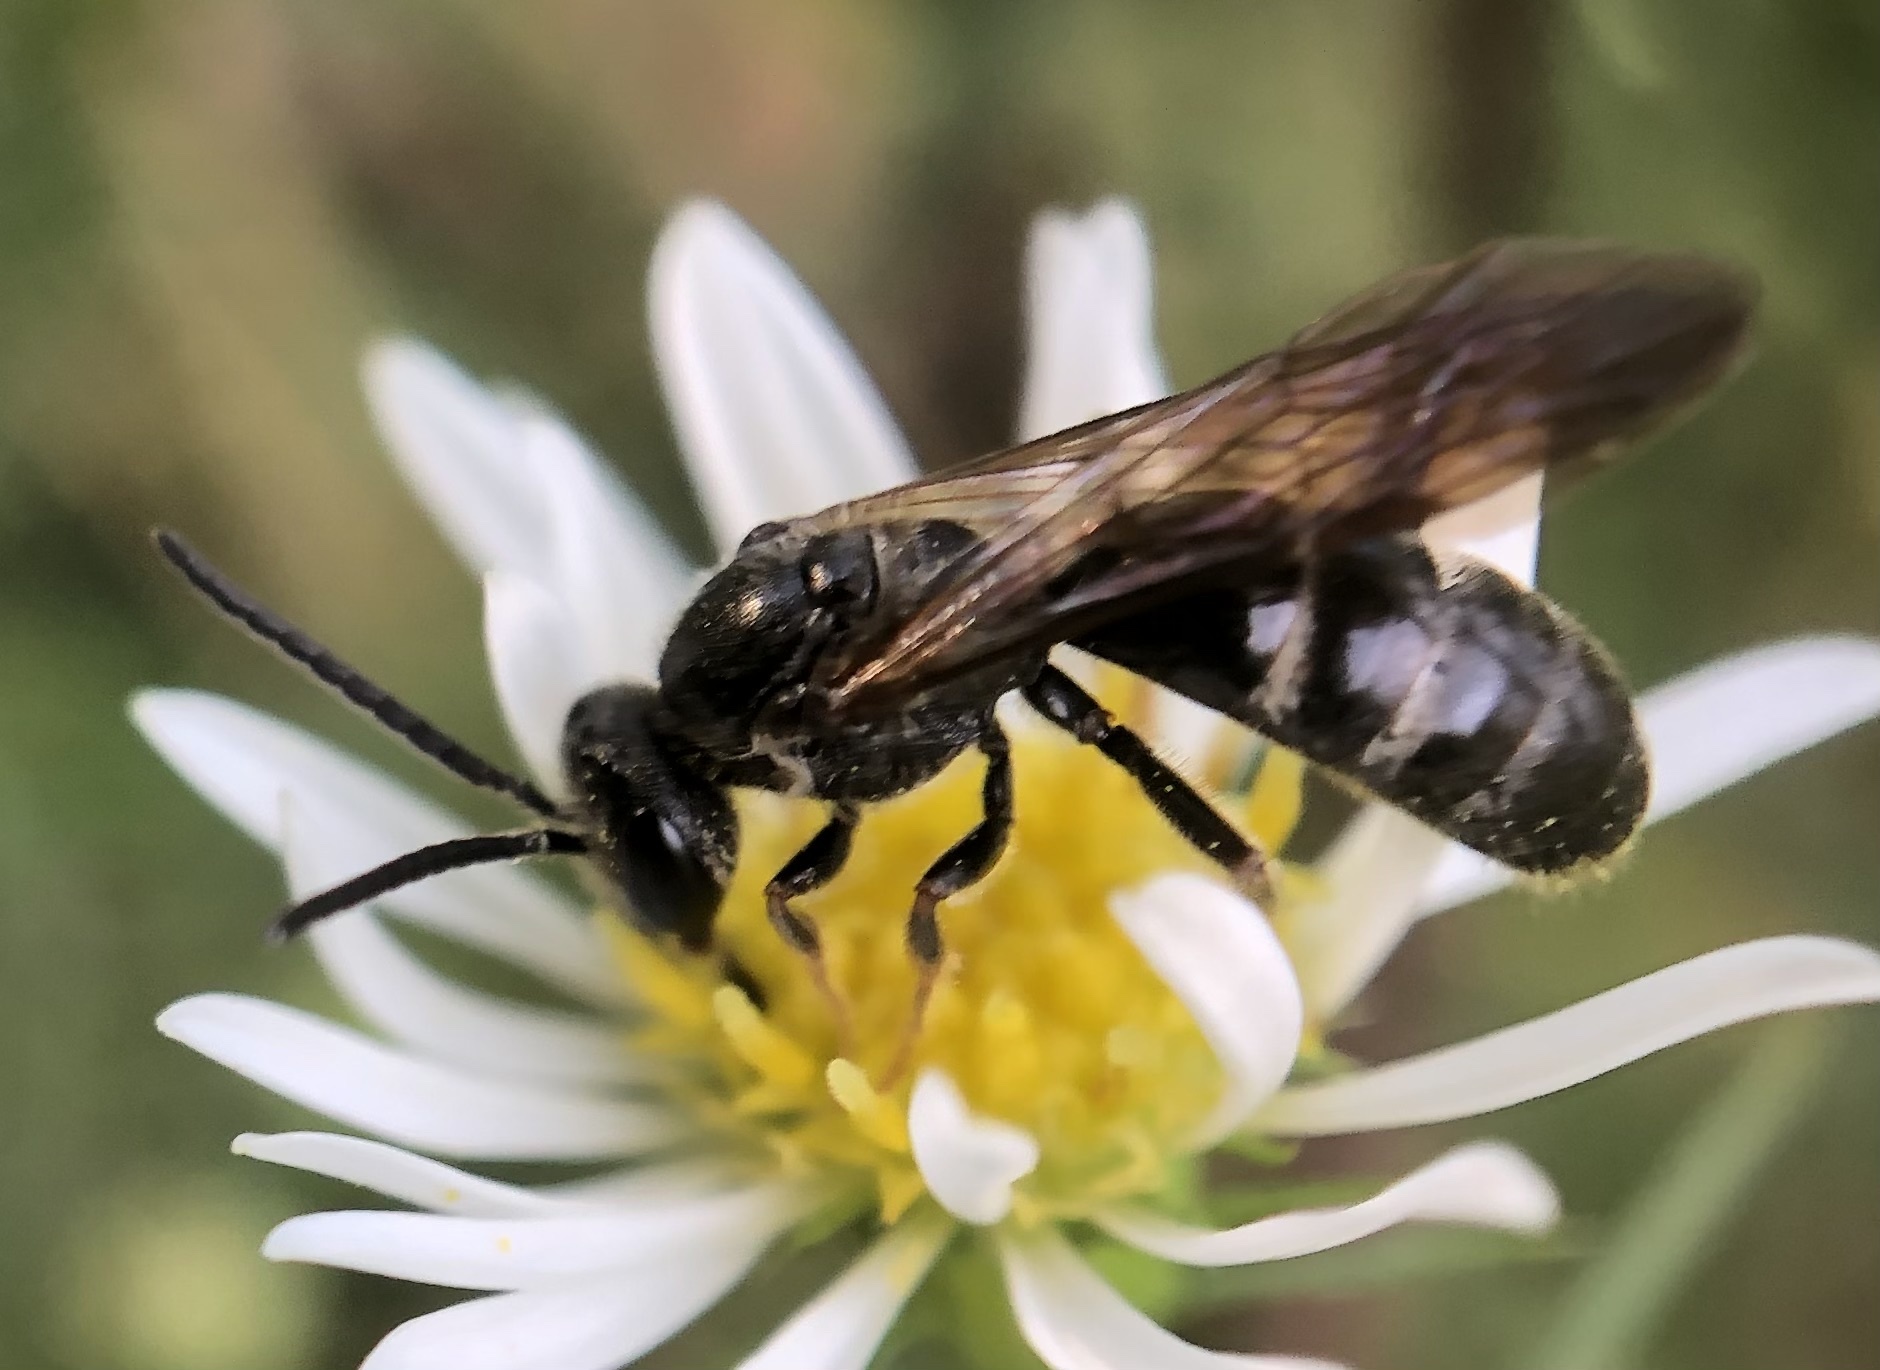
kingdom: Animalia
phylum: Arthropoda
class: Insecta
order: Hymenoptera
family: Halictidae
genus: Lasioglossum
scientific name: Lasioglossum fuscipenne
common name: Brown-winged sweat bee
